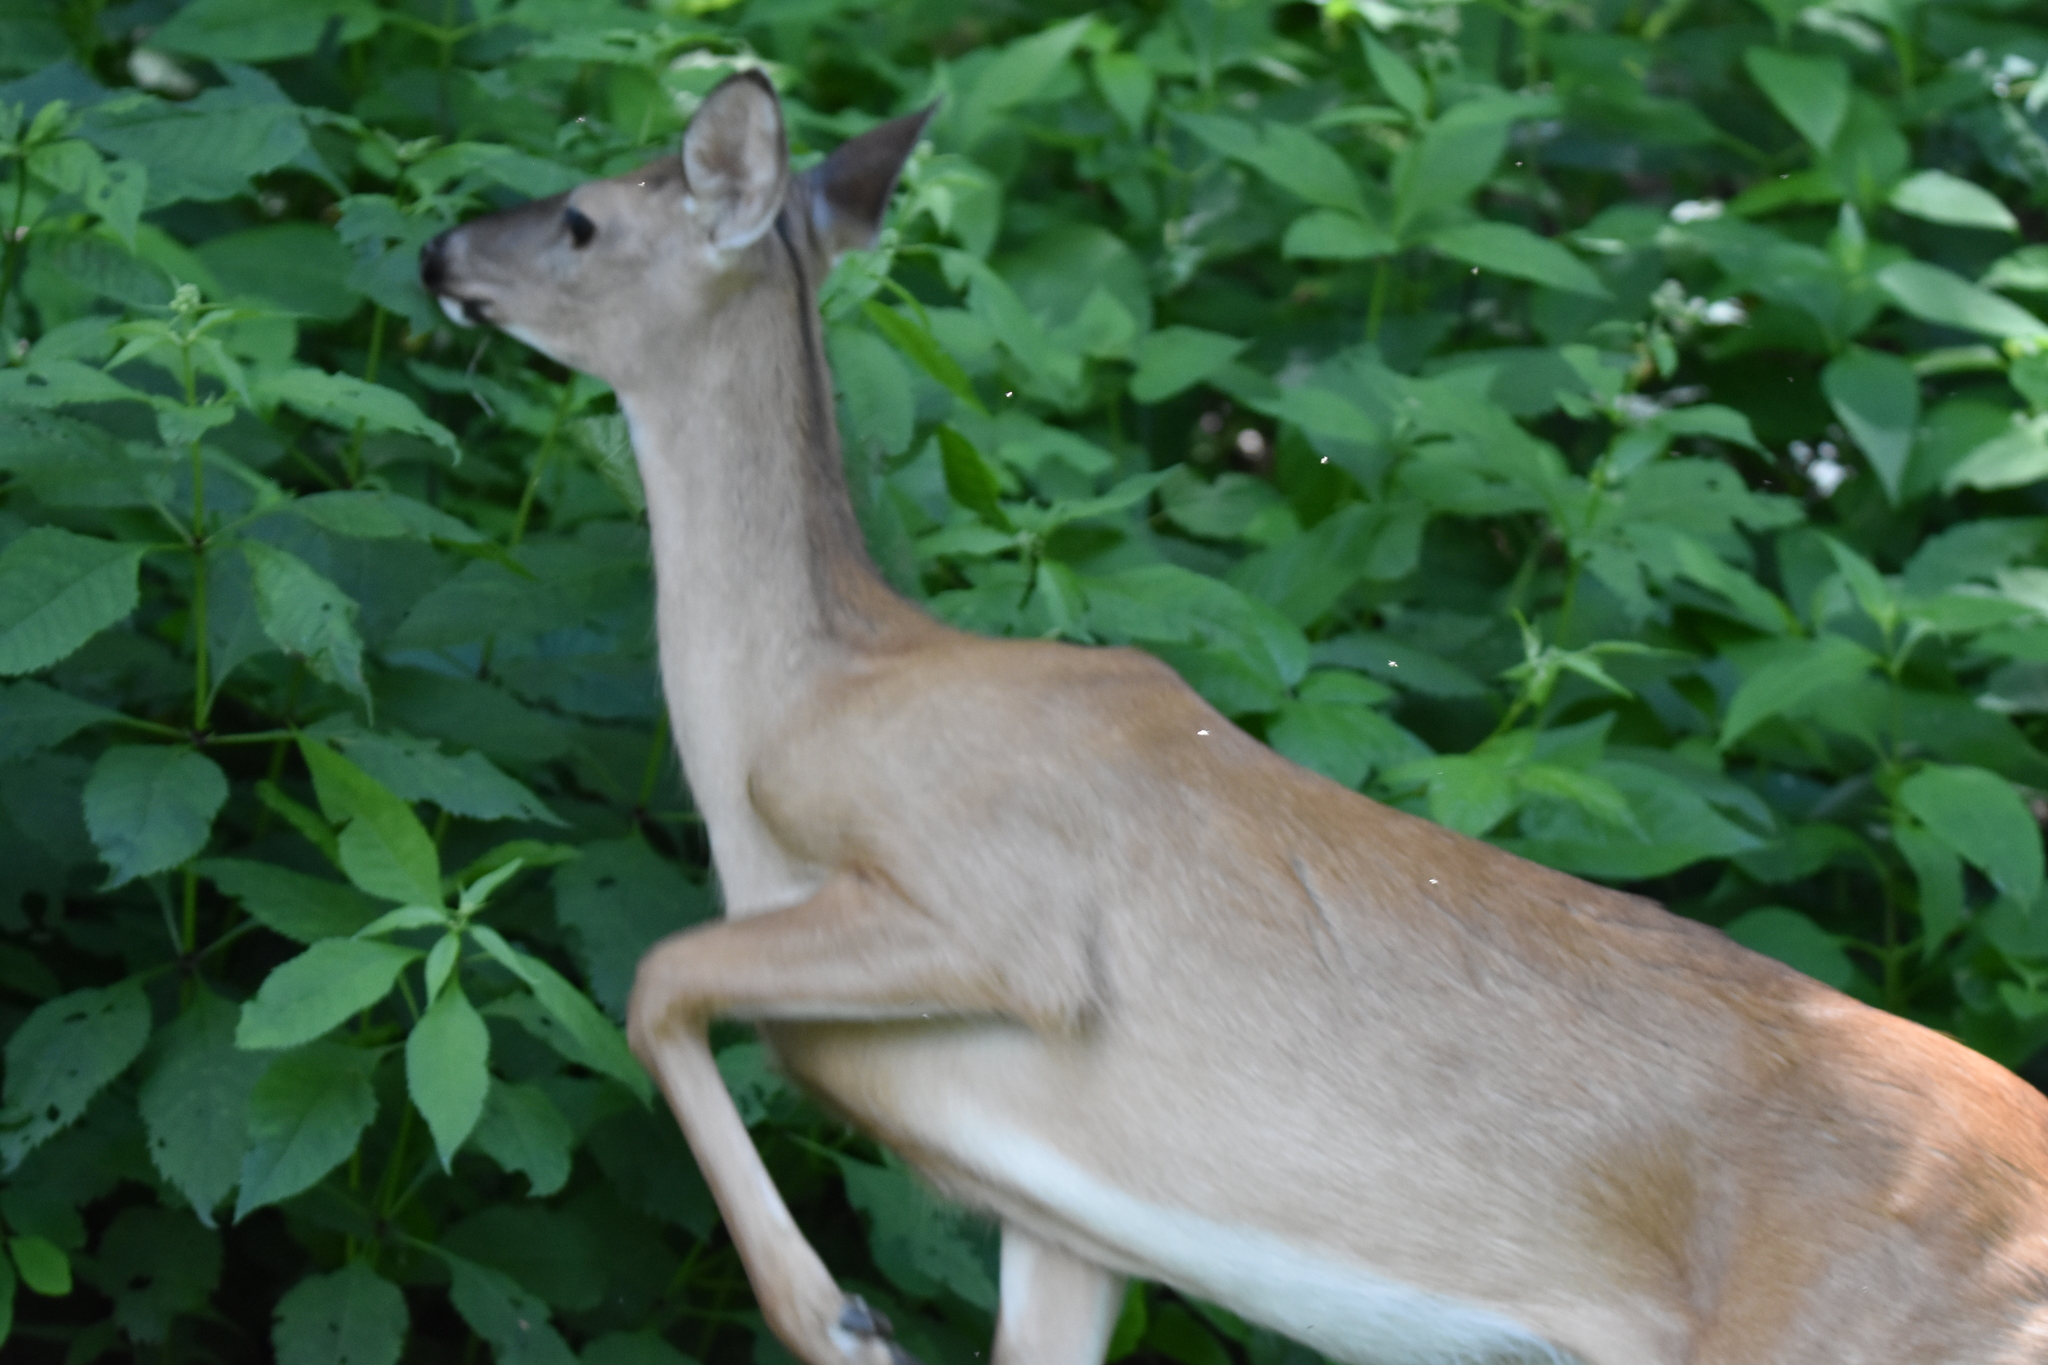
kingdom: Animalia
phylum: Chordata
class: Mammalia
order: Artiodactyla
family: Cervidae
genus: Odocoileus
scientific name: Odocoileus virginianus
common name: White-tailed deer
